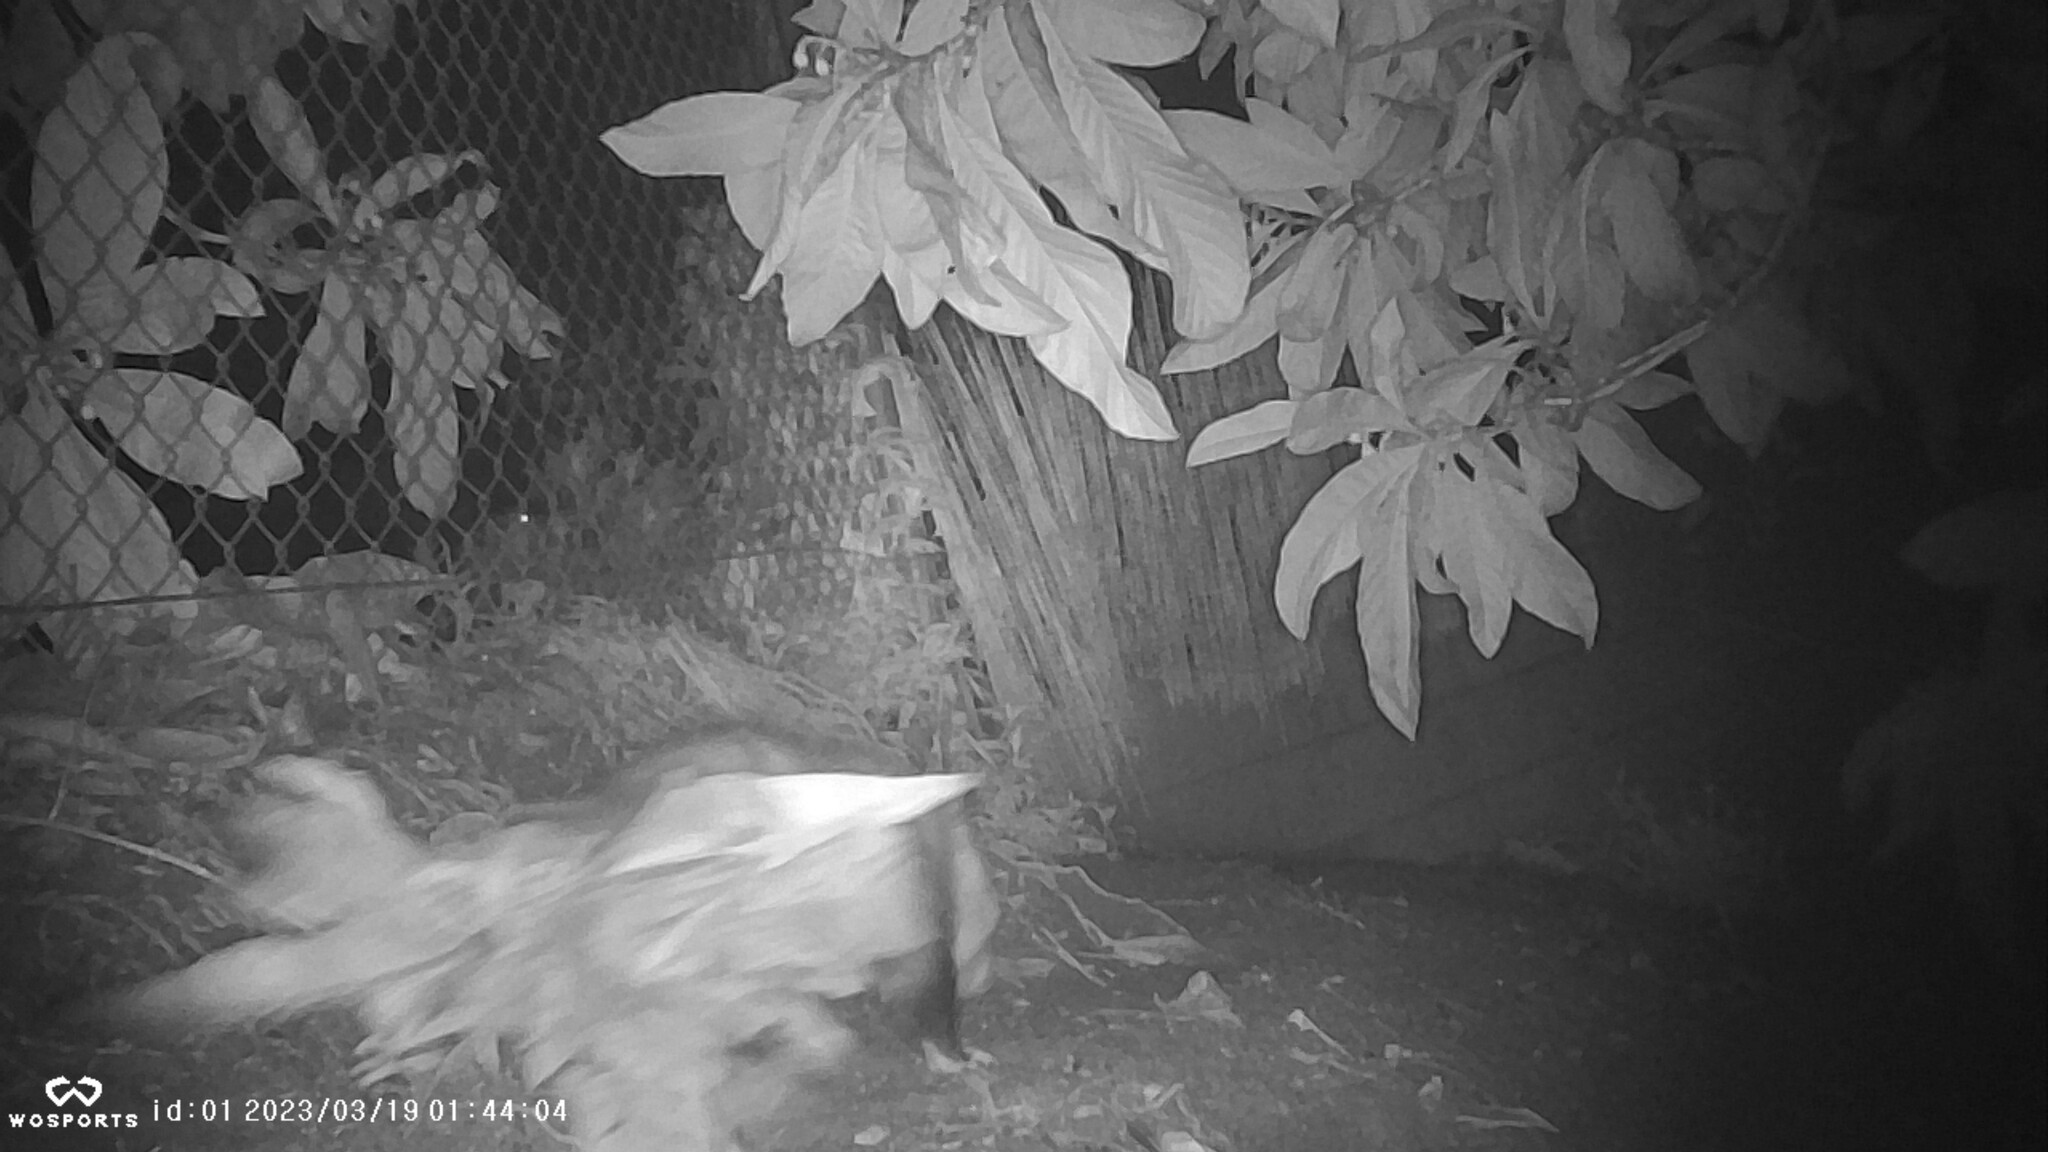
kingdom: Animalia
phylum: Chordata
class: Mammalia
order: Didelphimorphia
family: Didelphidae
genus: Didelphis
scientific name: Didelphis virginiana
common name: Virginia opossum
